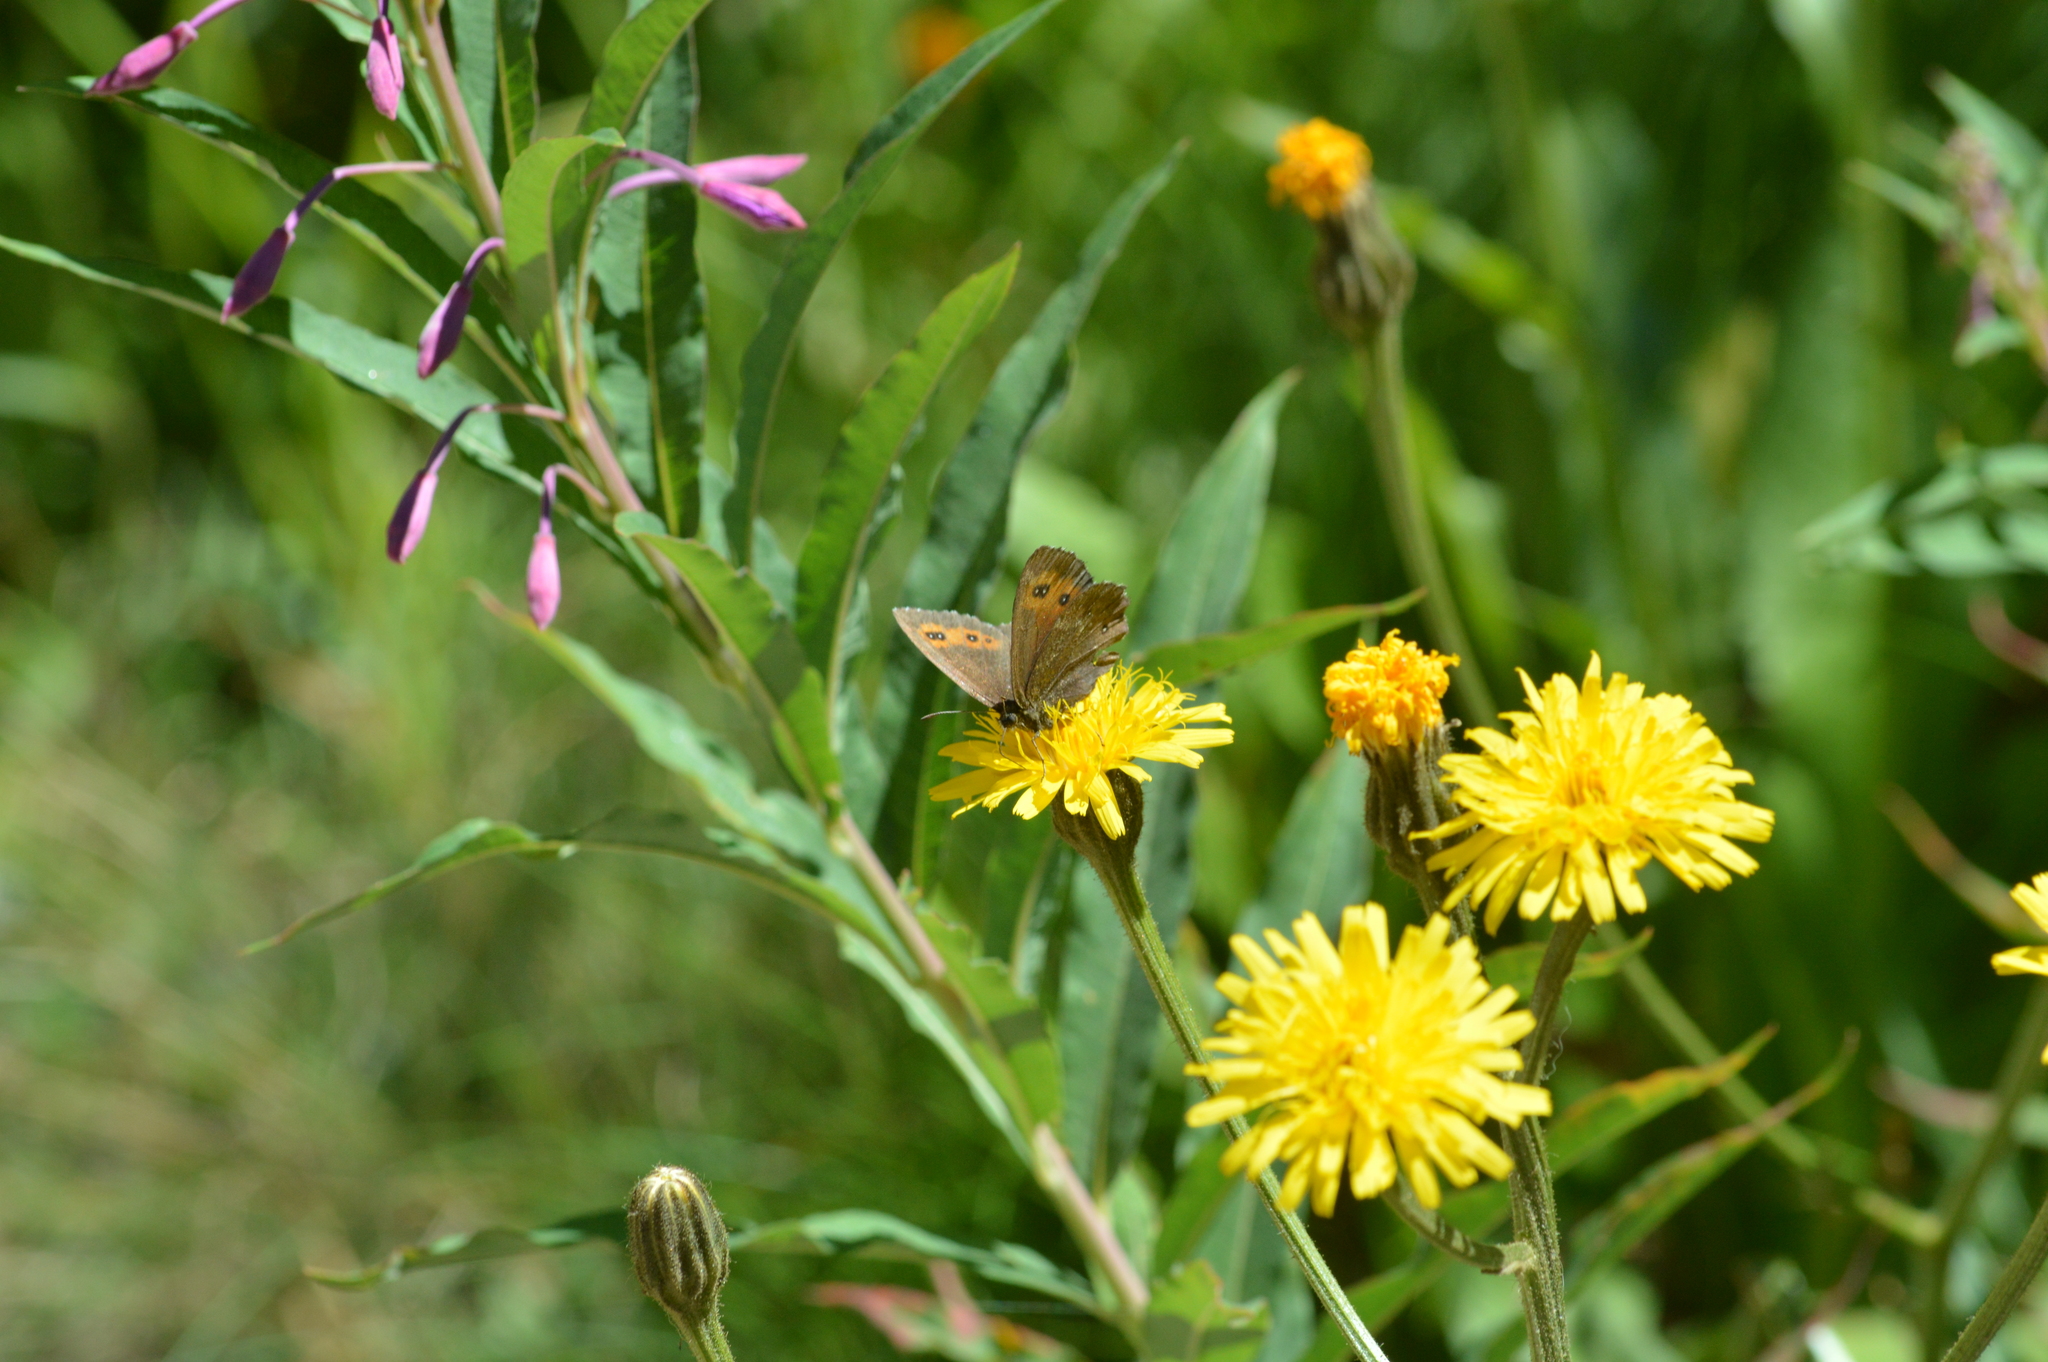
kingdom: Animalia
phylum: Arthropoda
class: Insecta
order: Lepidoptera
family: Nymphalidae
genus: Erebia
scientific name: Erebia euryale
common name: Large ringlet
